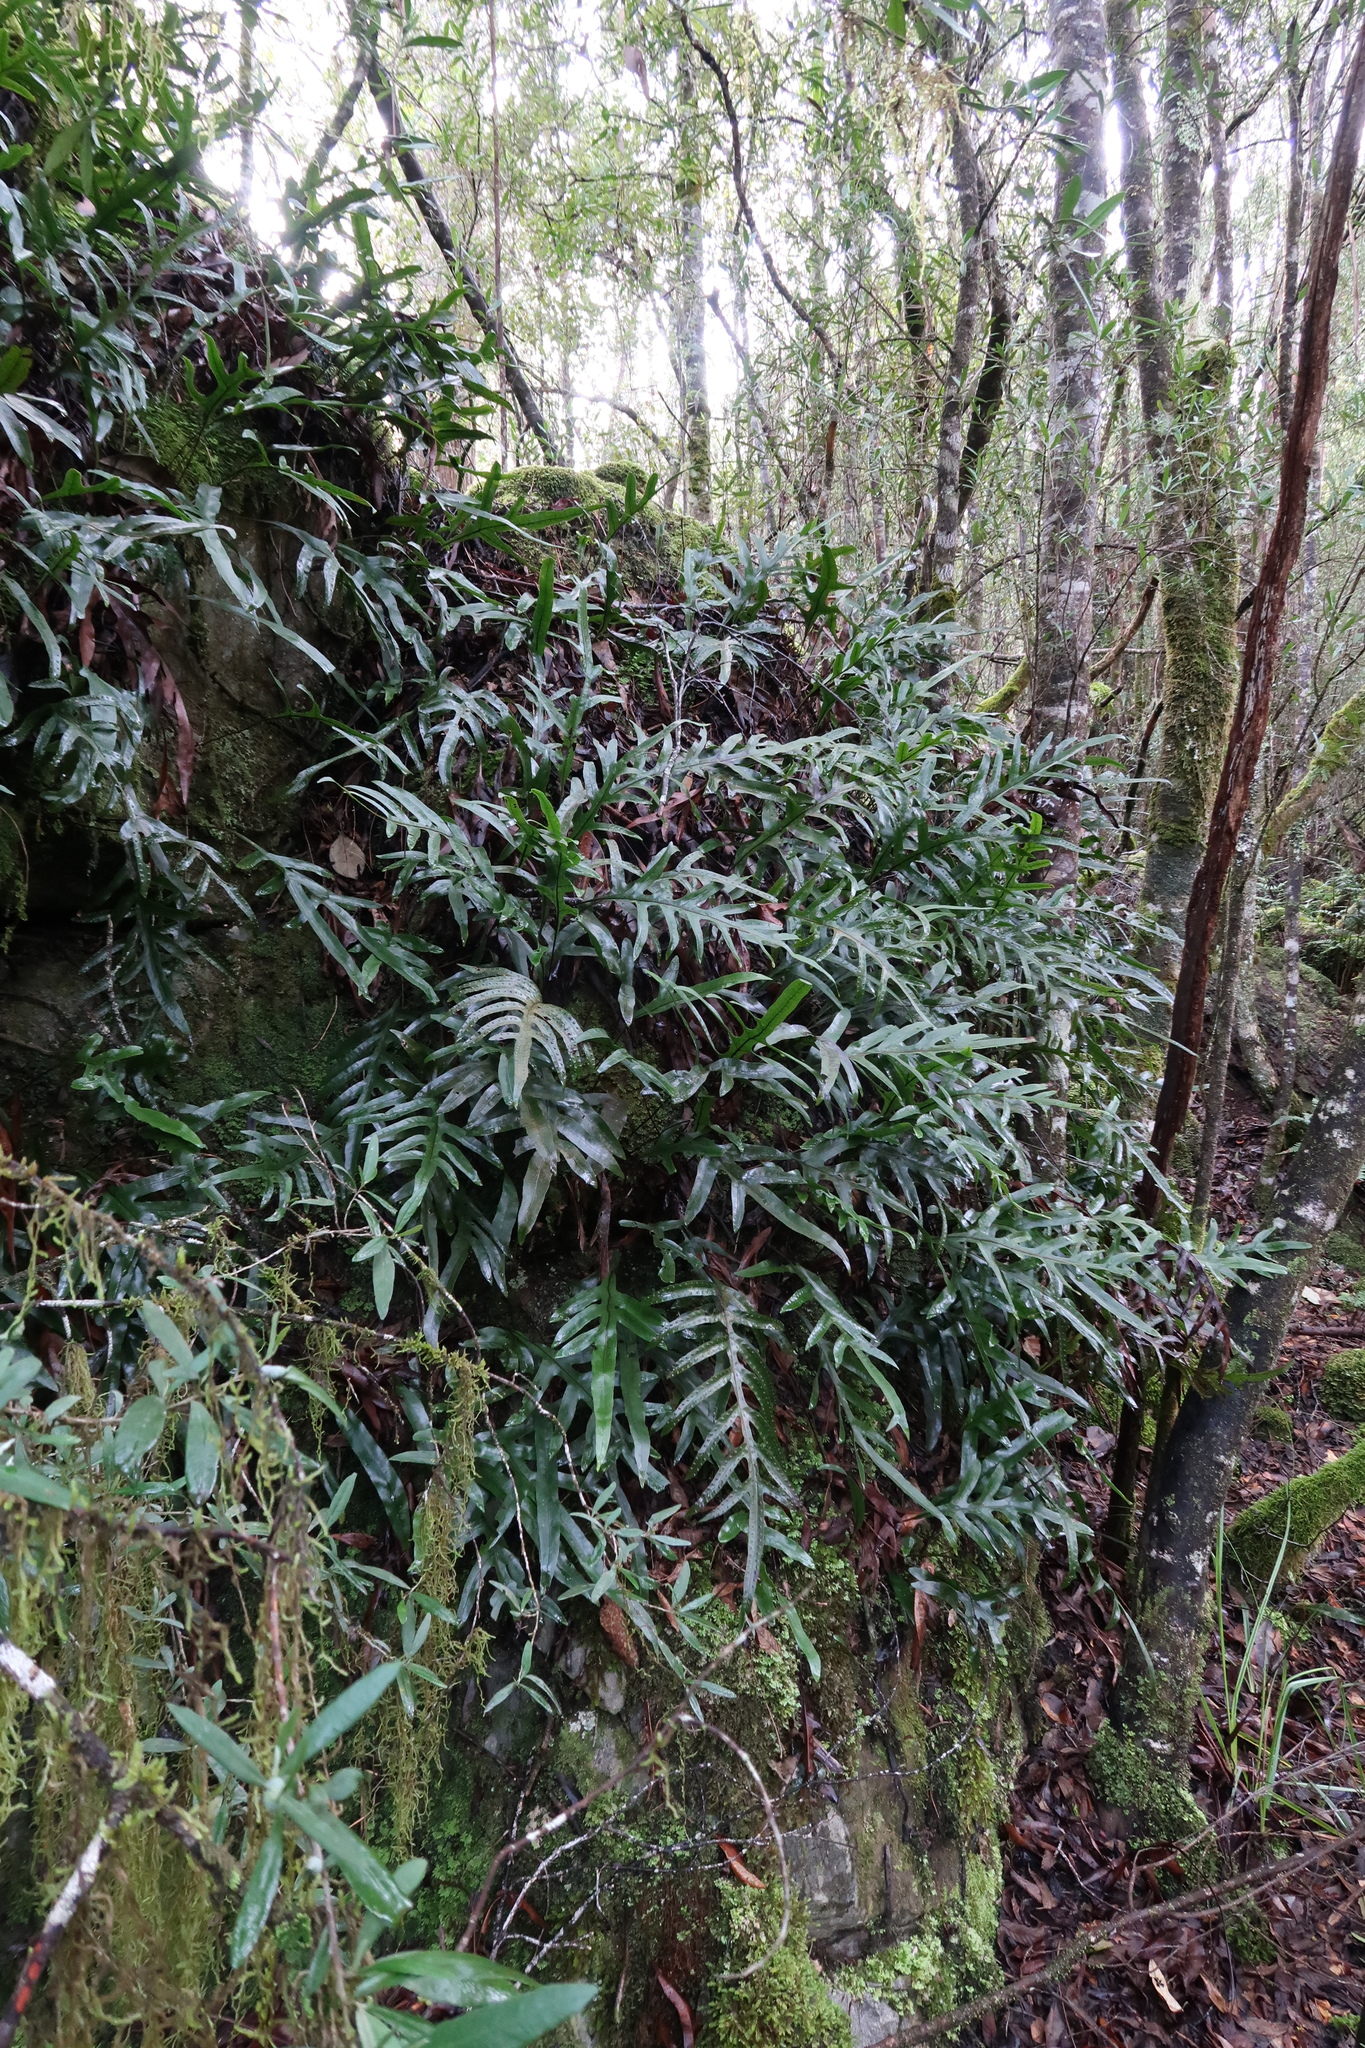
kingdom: Plantae
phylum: Tracheophyta
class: Polypodiopsida
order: Polypodiales
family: Polypodiaceae
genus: Lecanopteris
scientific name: Lecanopteris pustulata
